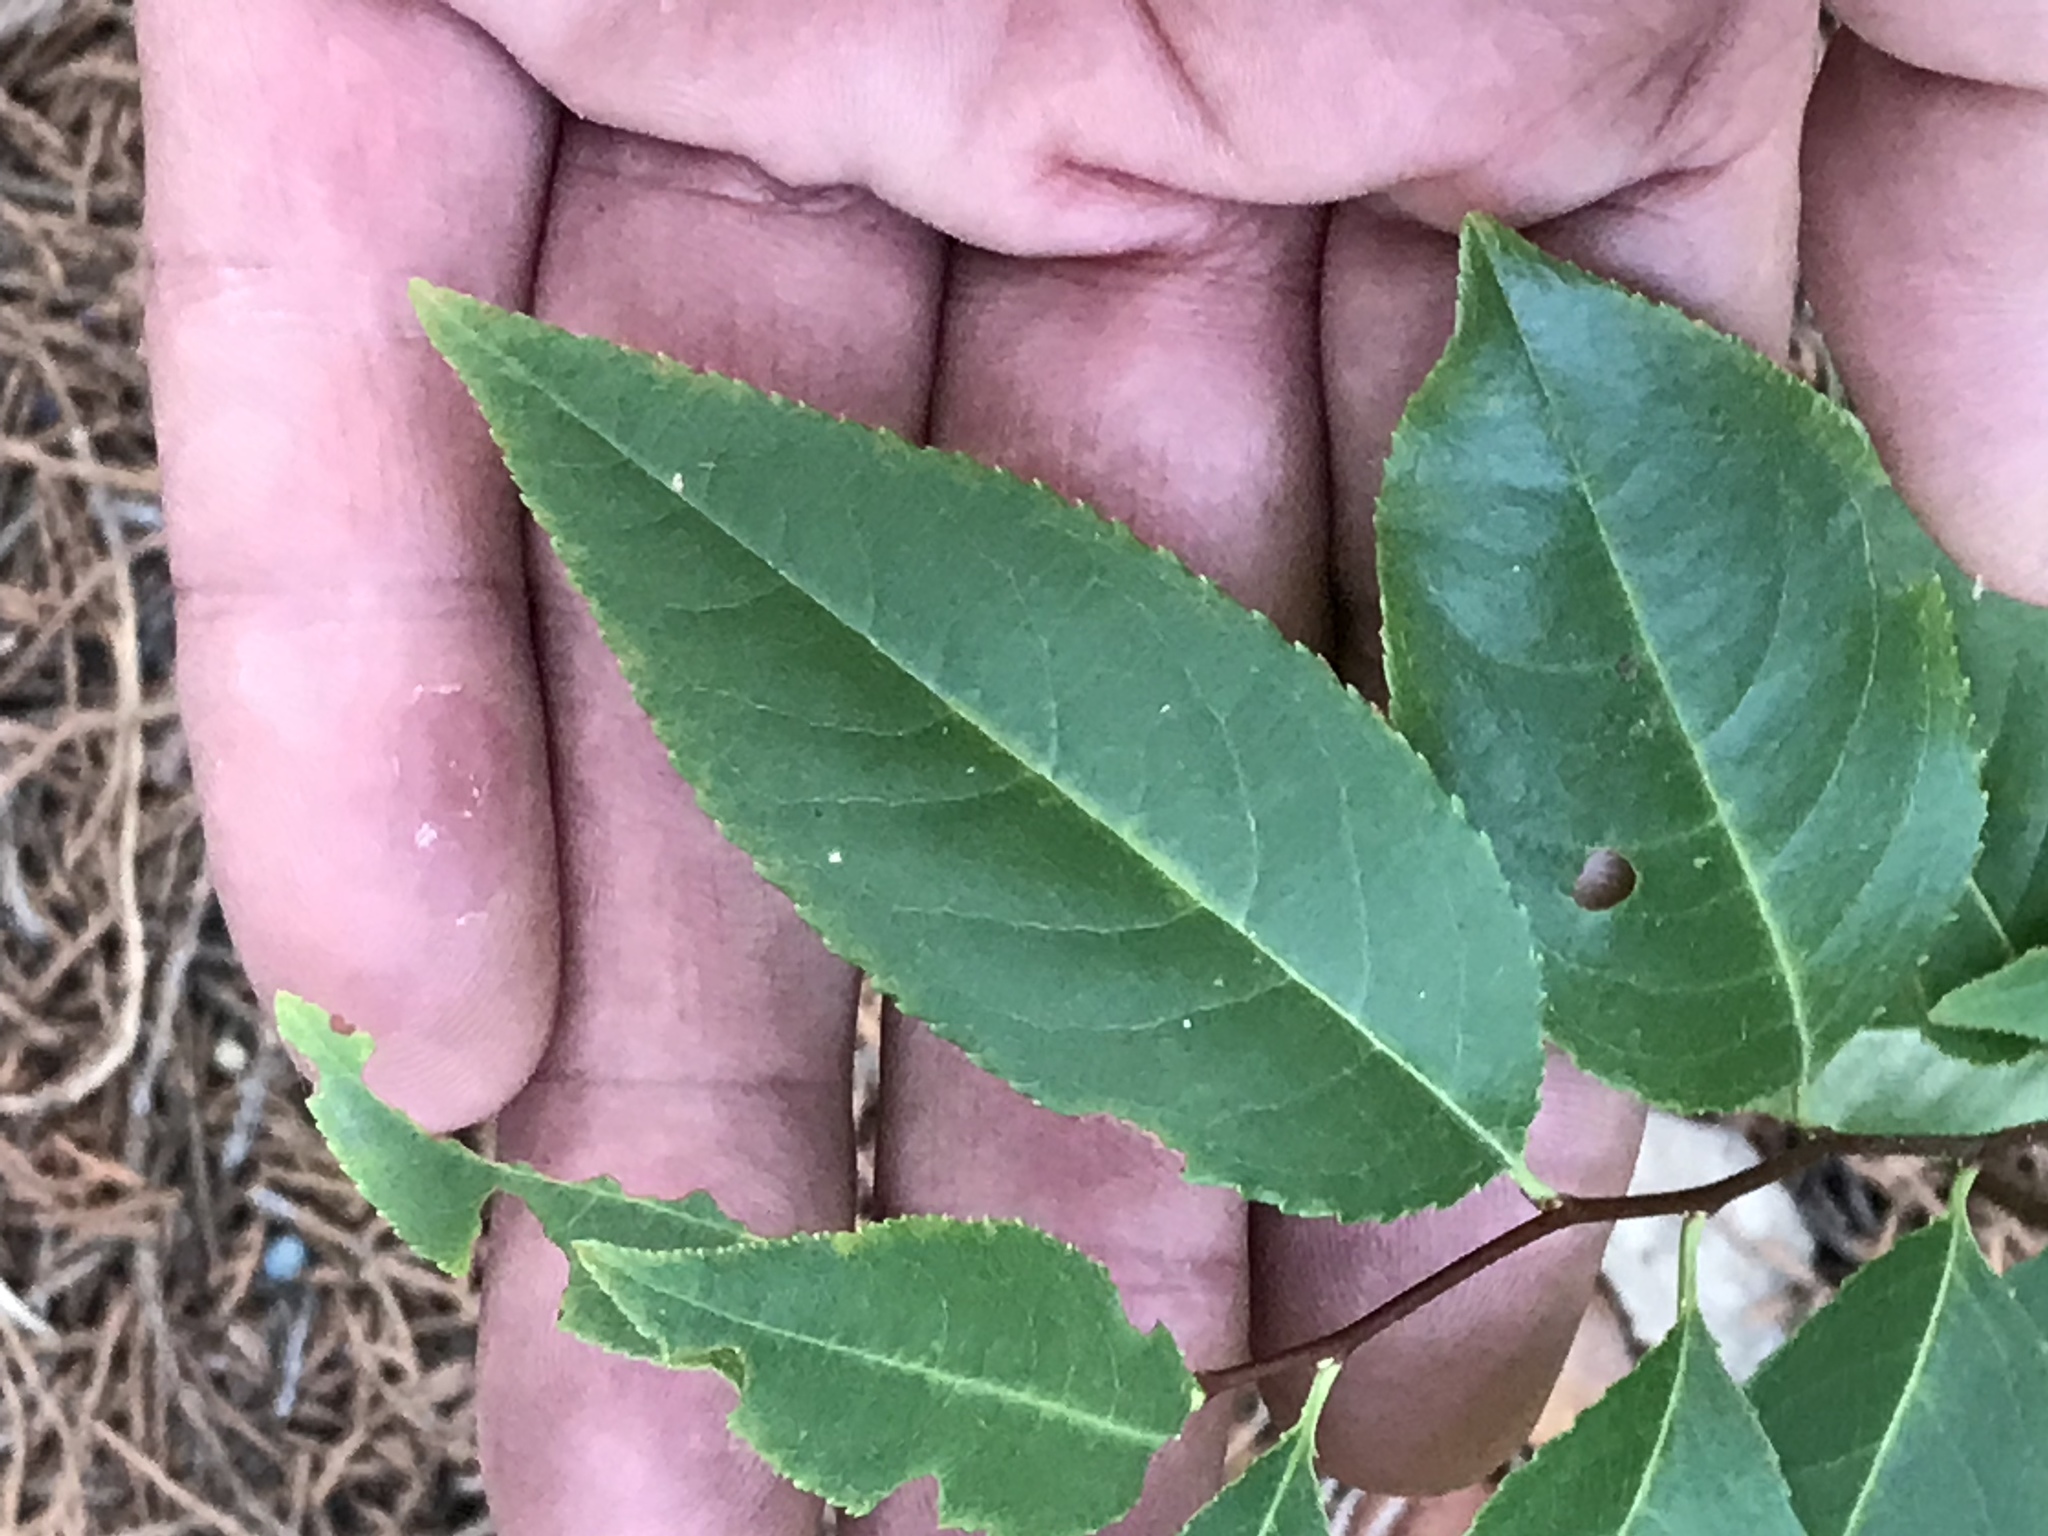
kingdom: Plantae
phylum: Tracheophyta
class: Magnoliopsida
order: Rosales
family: Rosaceae
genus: Prunus
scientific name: Prunus serotina
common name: Black cherry
